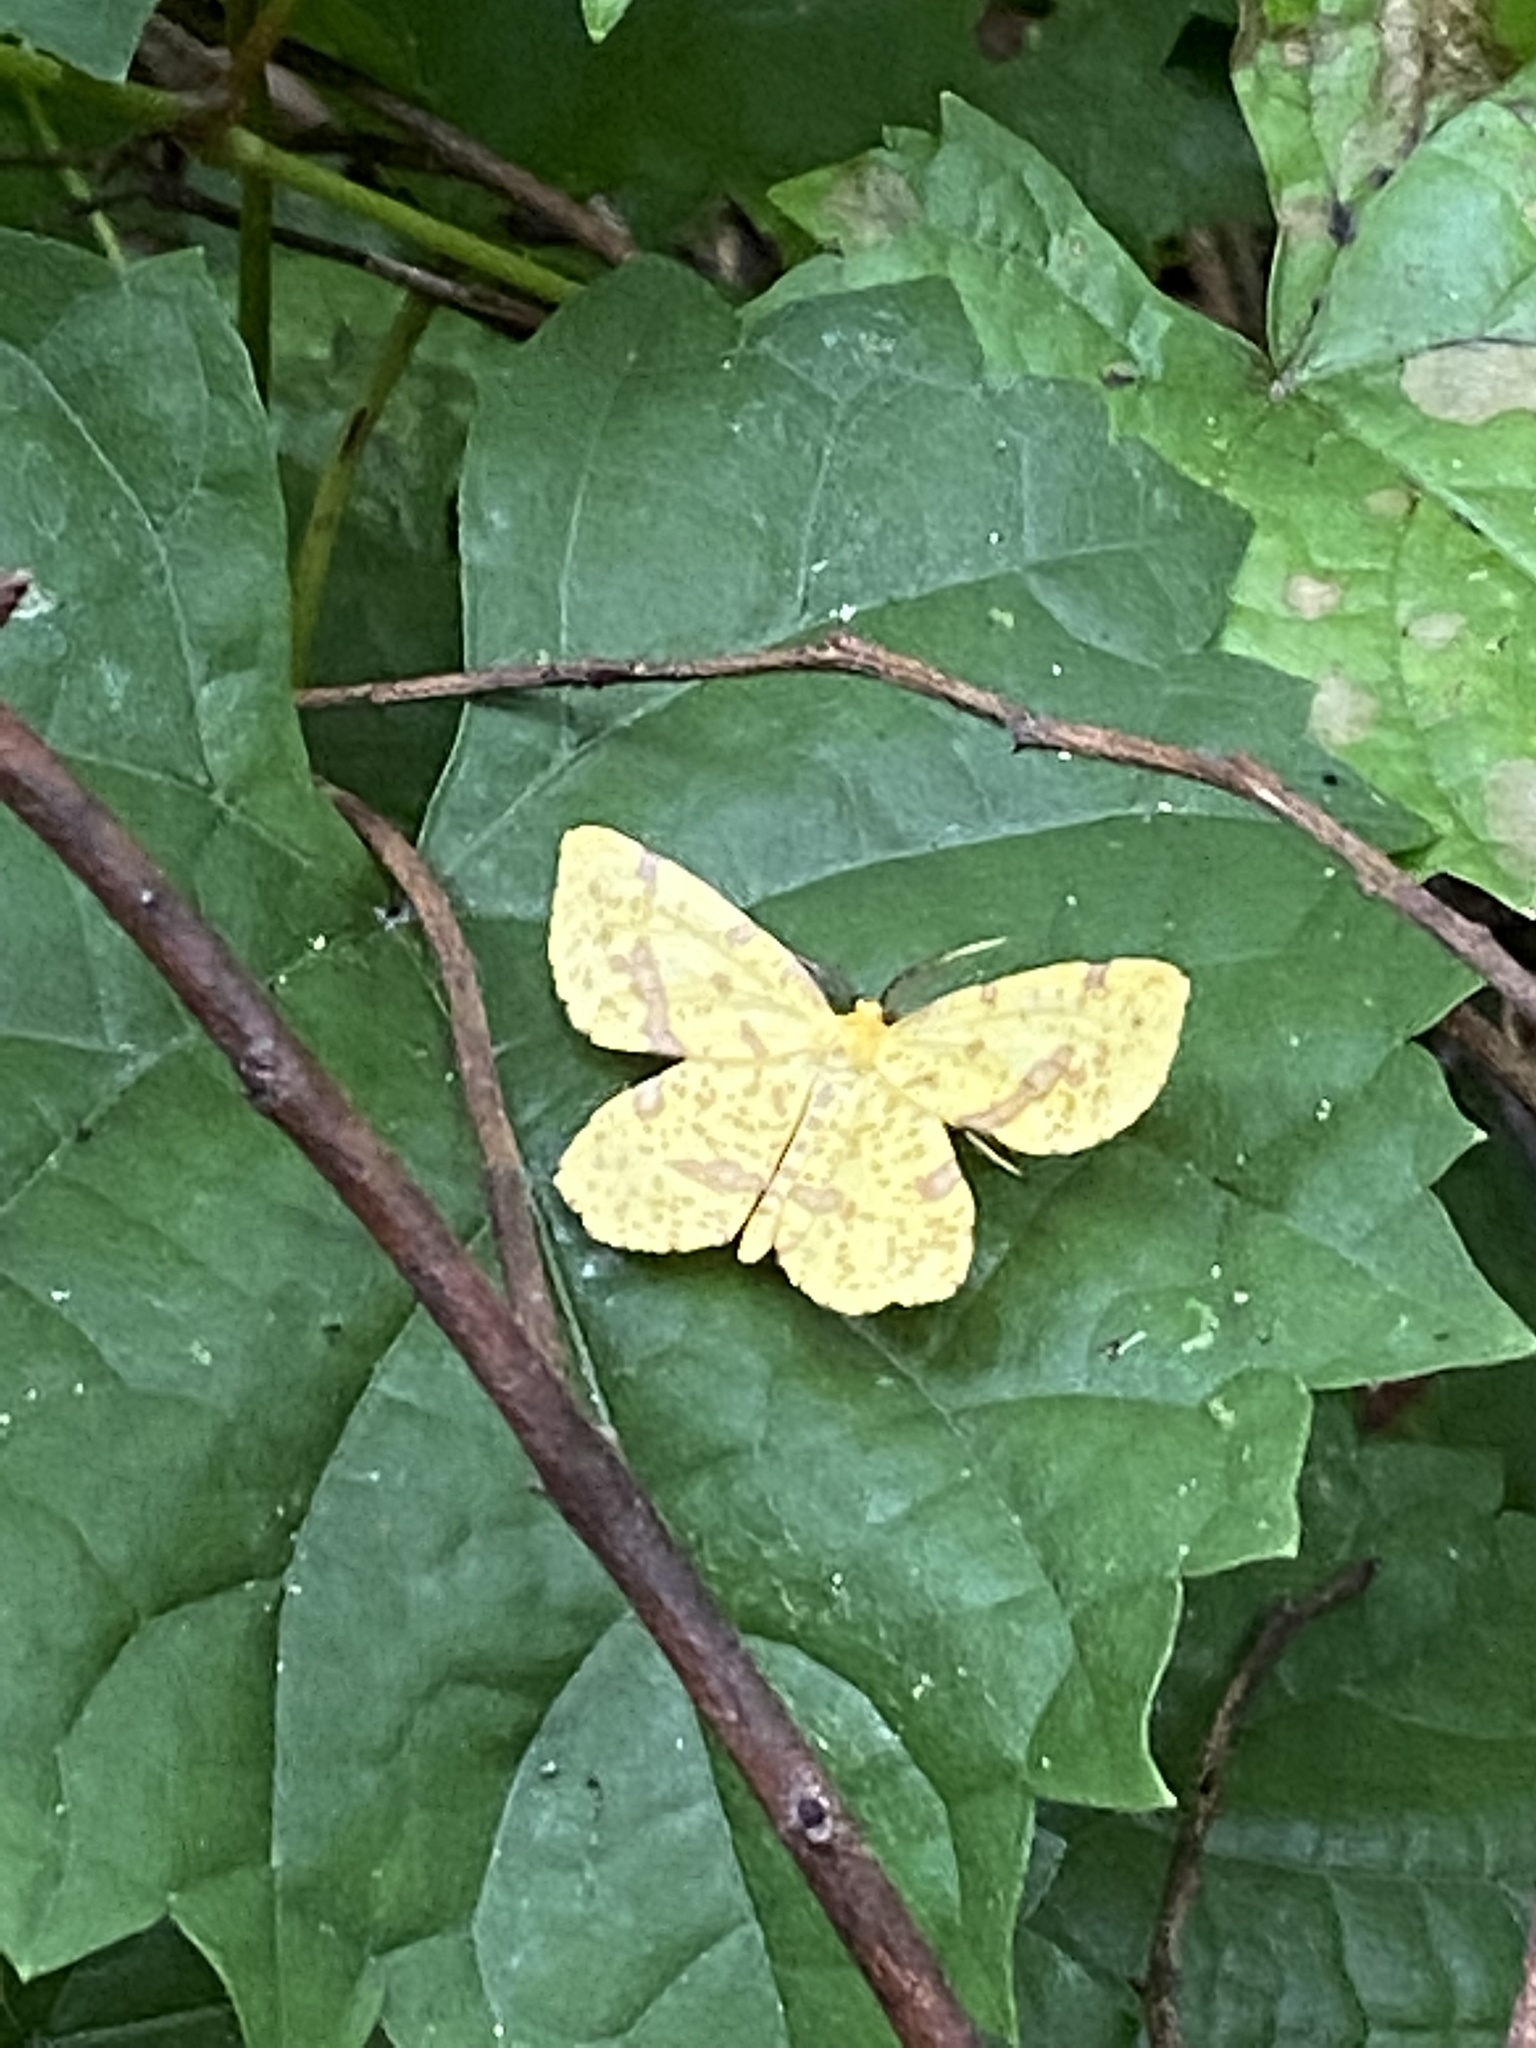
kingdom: Animalia
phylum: Arthropoda
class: Insecta
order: Lepidoptera
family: Geometridae
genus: Xanthotype
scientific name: Xanthotype
